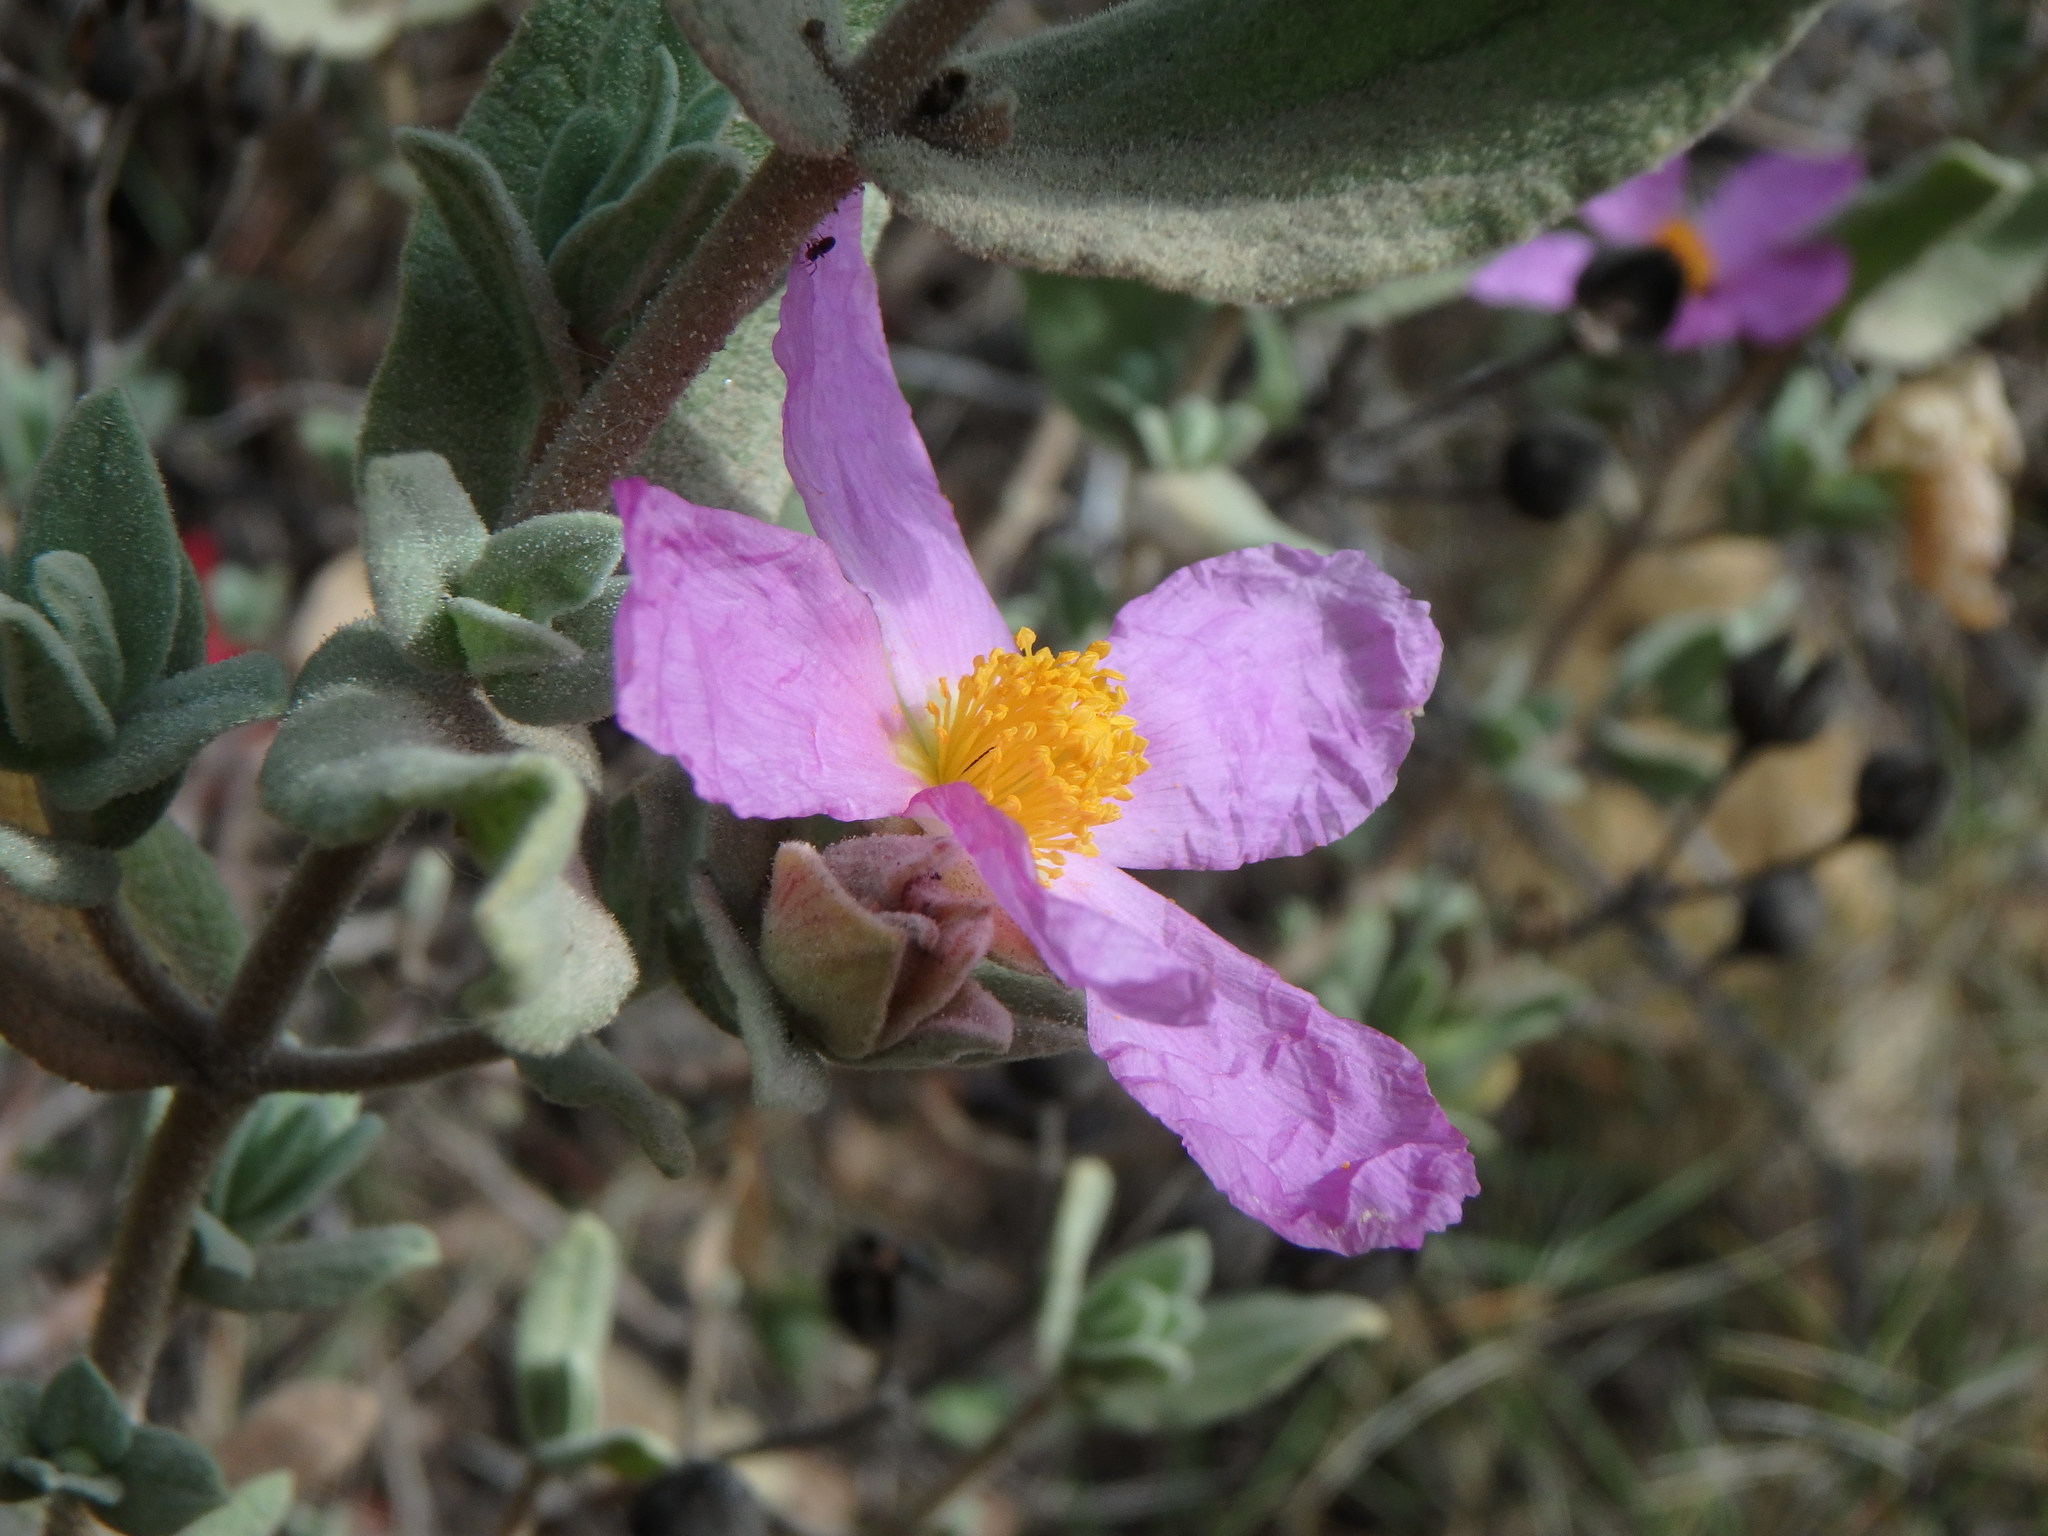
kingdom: Plantae
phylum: Tracheophyta
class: Magnoliopsida
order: Malvales
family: Cistaceae
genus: Cistus
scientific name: Cistus albidus
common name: White-leaf rock-rose
